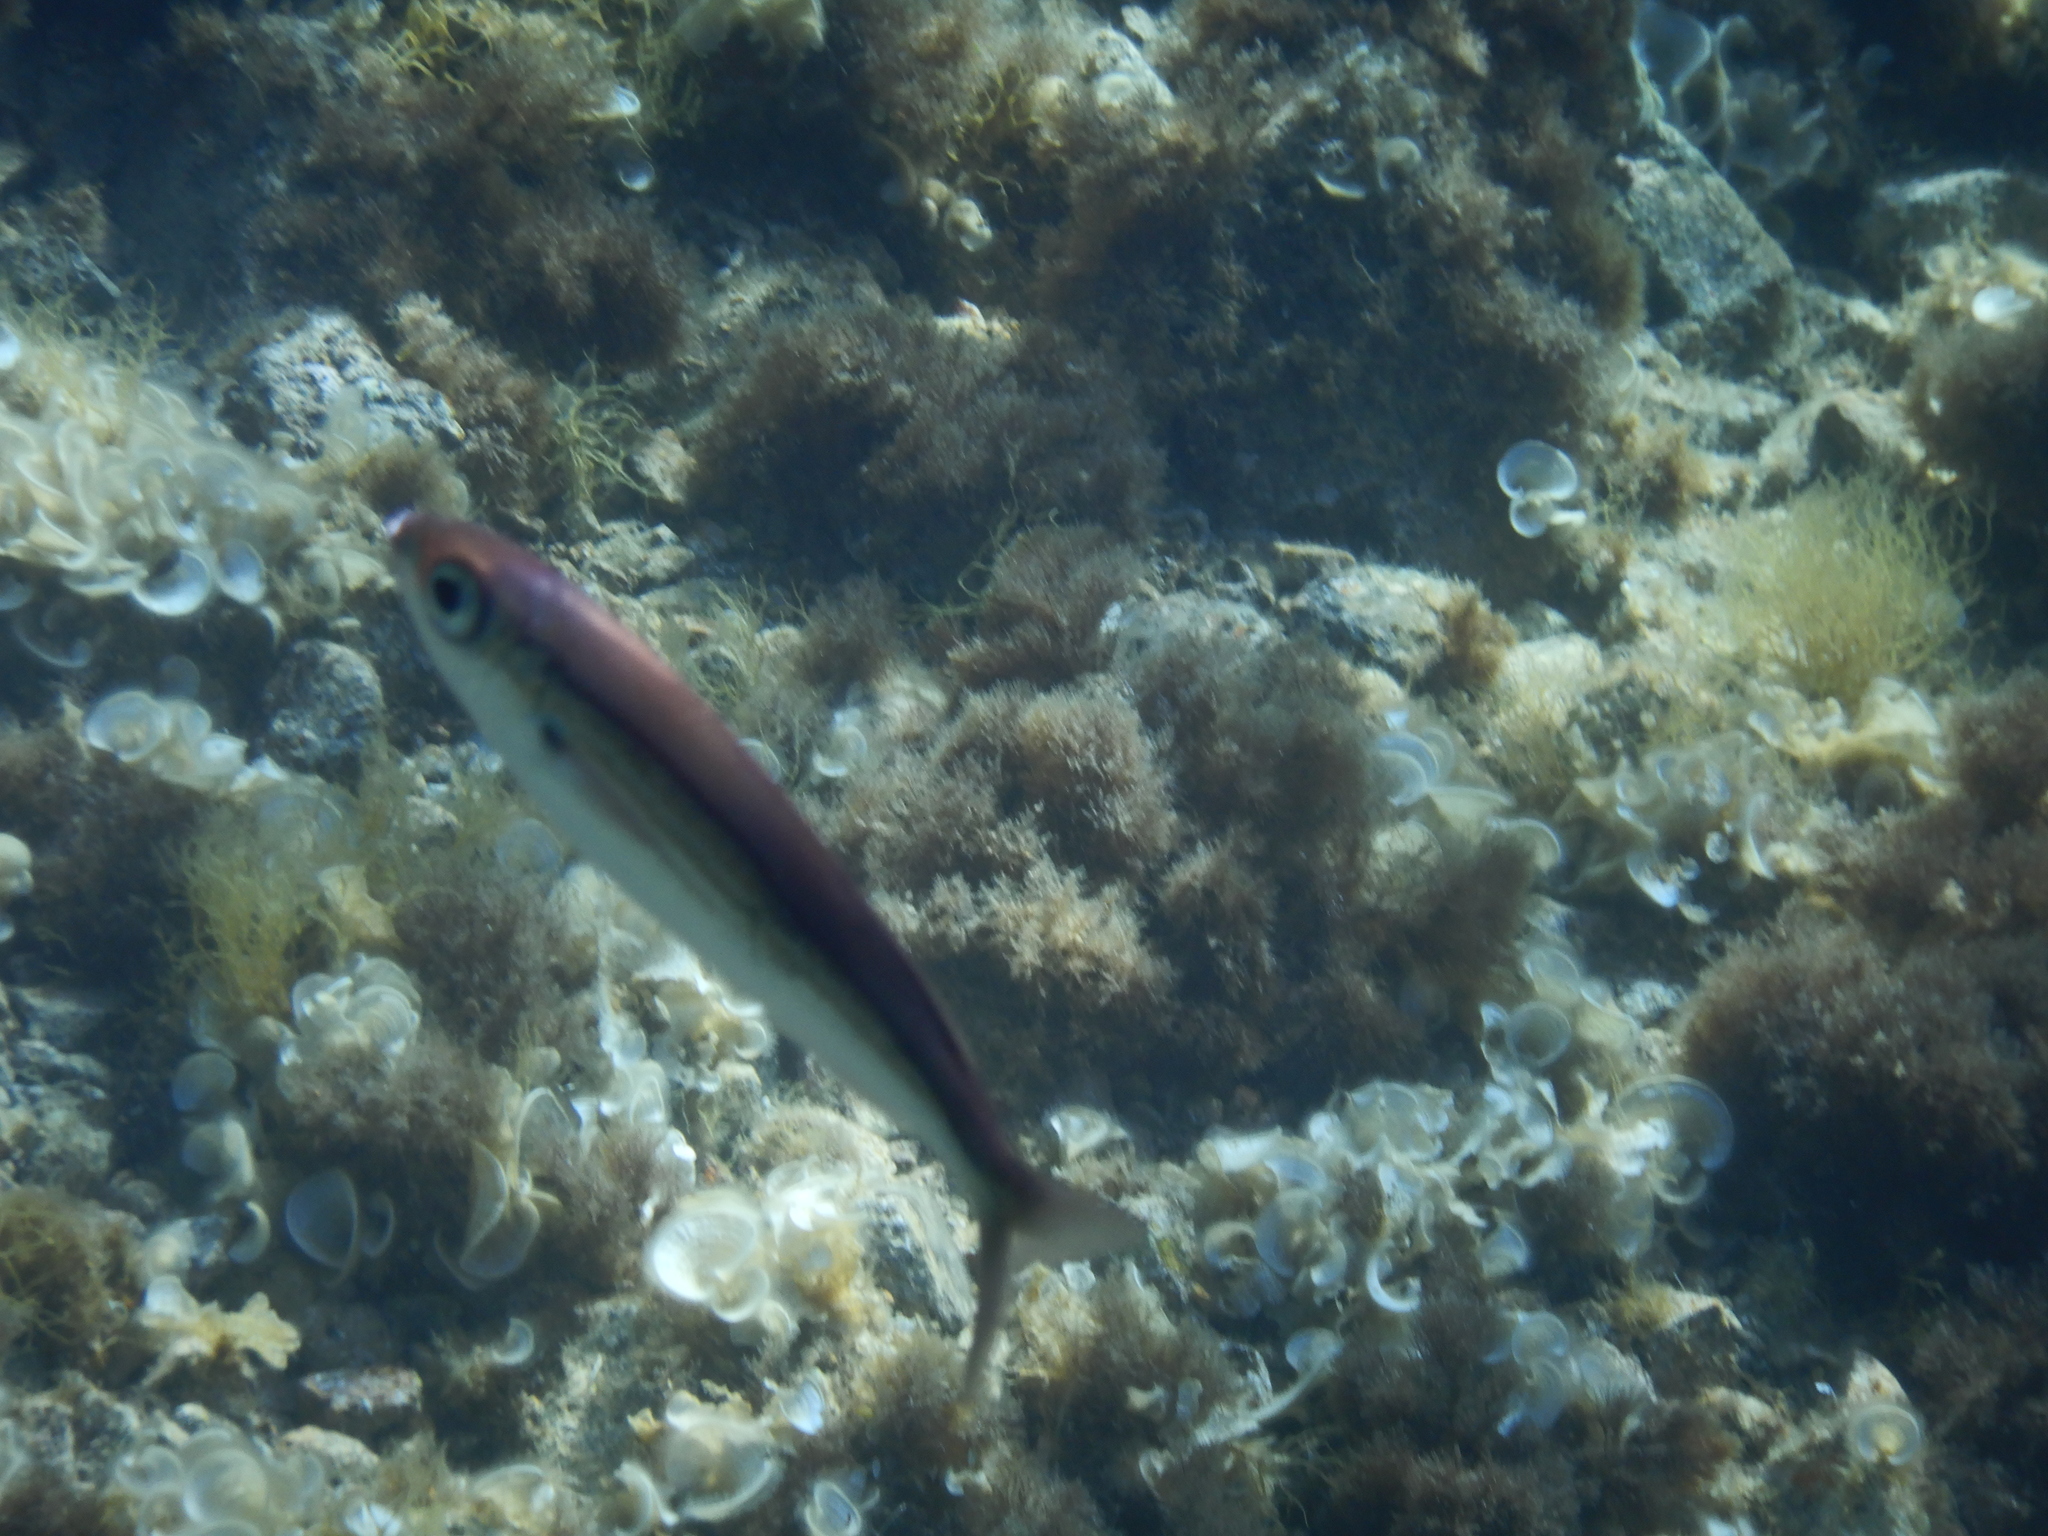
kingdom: Animalia
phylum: Chordata
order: Perciformes
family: Sparidae
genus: Boops
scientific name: Boops boops
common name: Bogue
